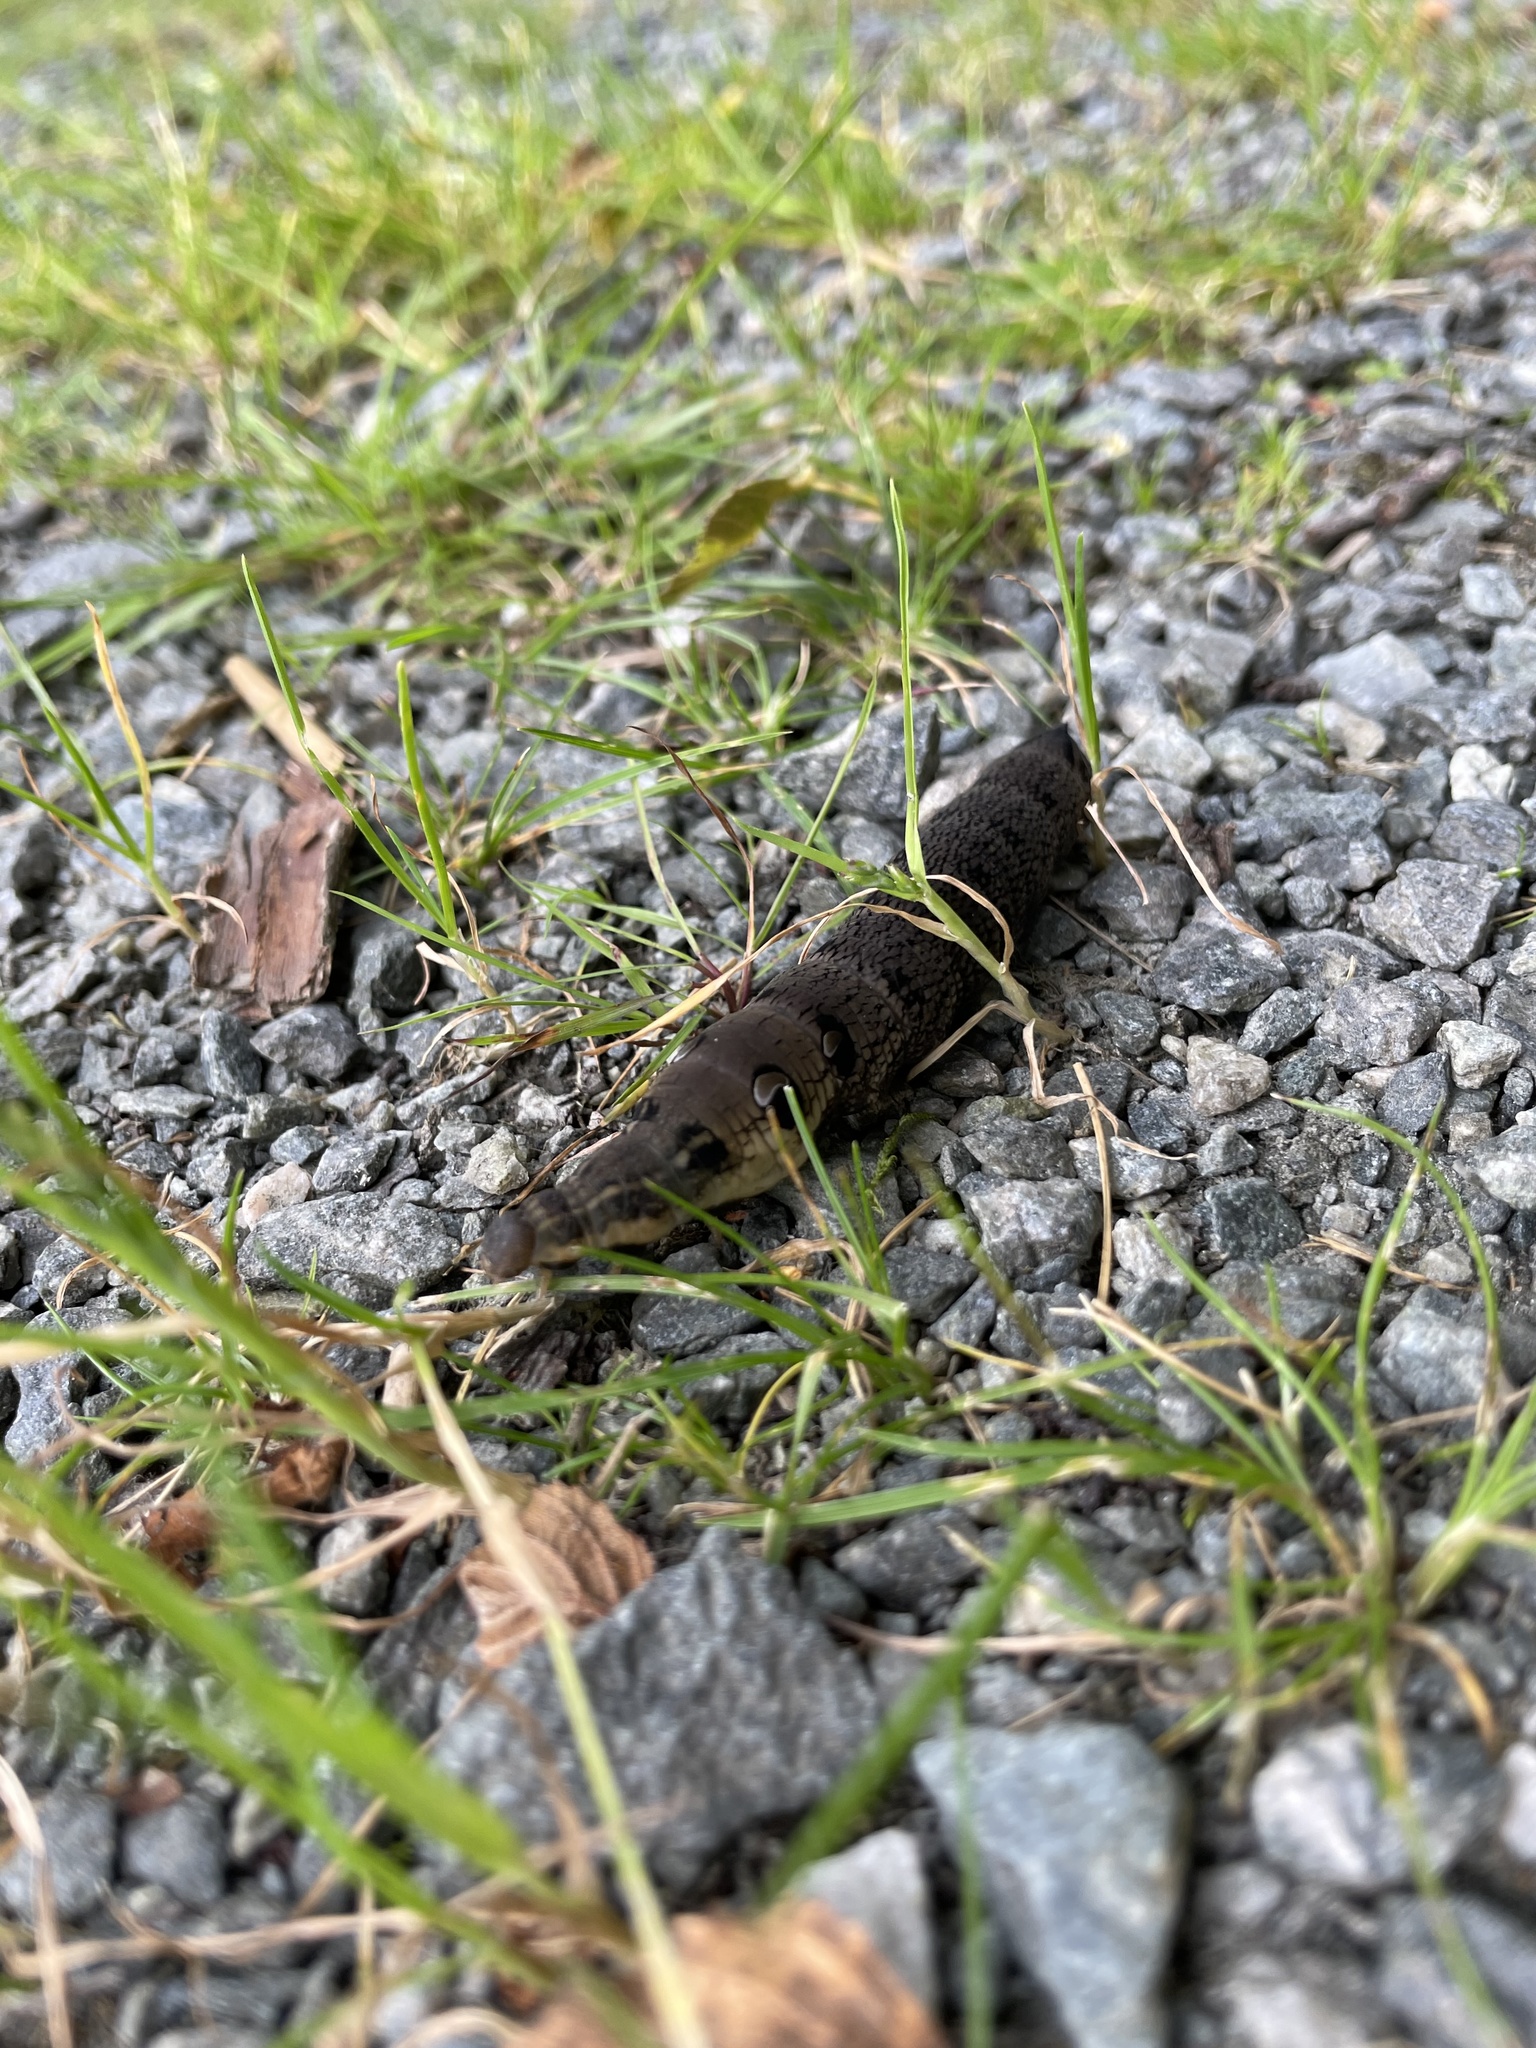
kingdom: Animalia
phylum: Arthropoda
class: Insecta
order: Lepidoptera
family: Sphingidae
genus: Deilephila
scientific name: Deilephila elpenor
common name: Elephant hawk-moth
